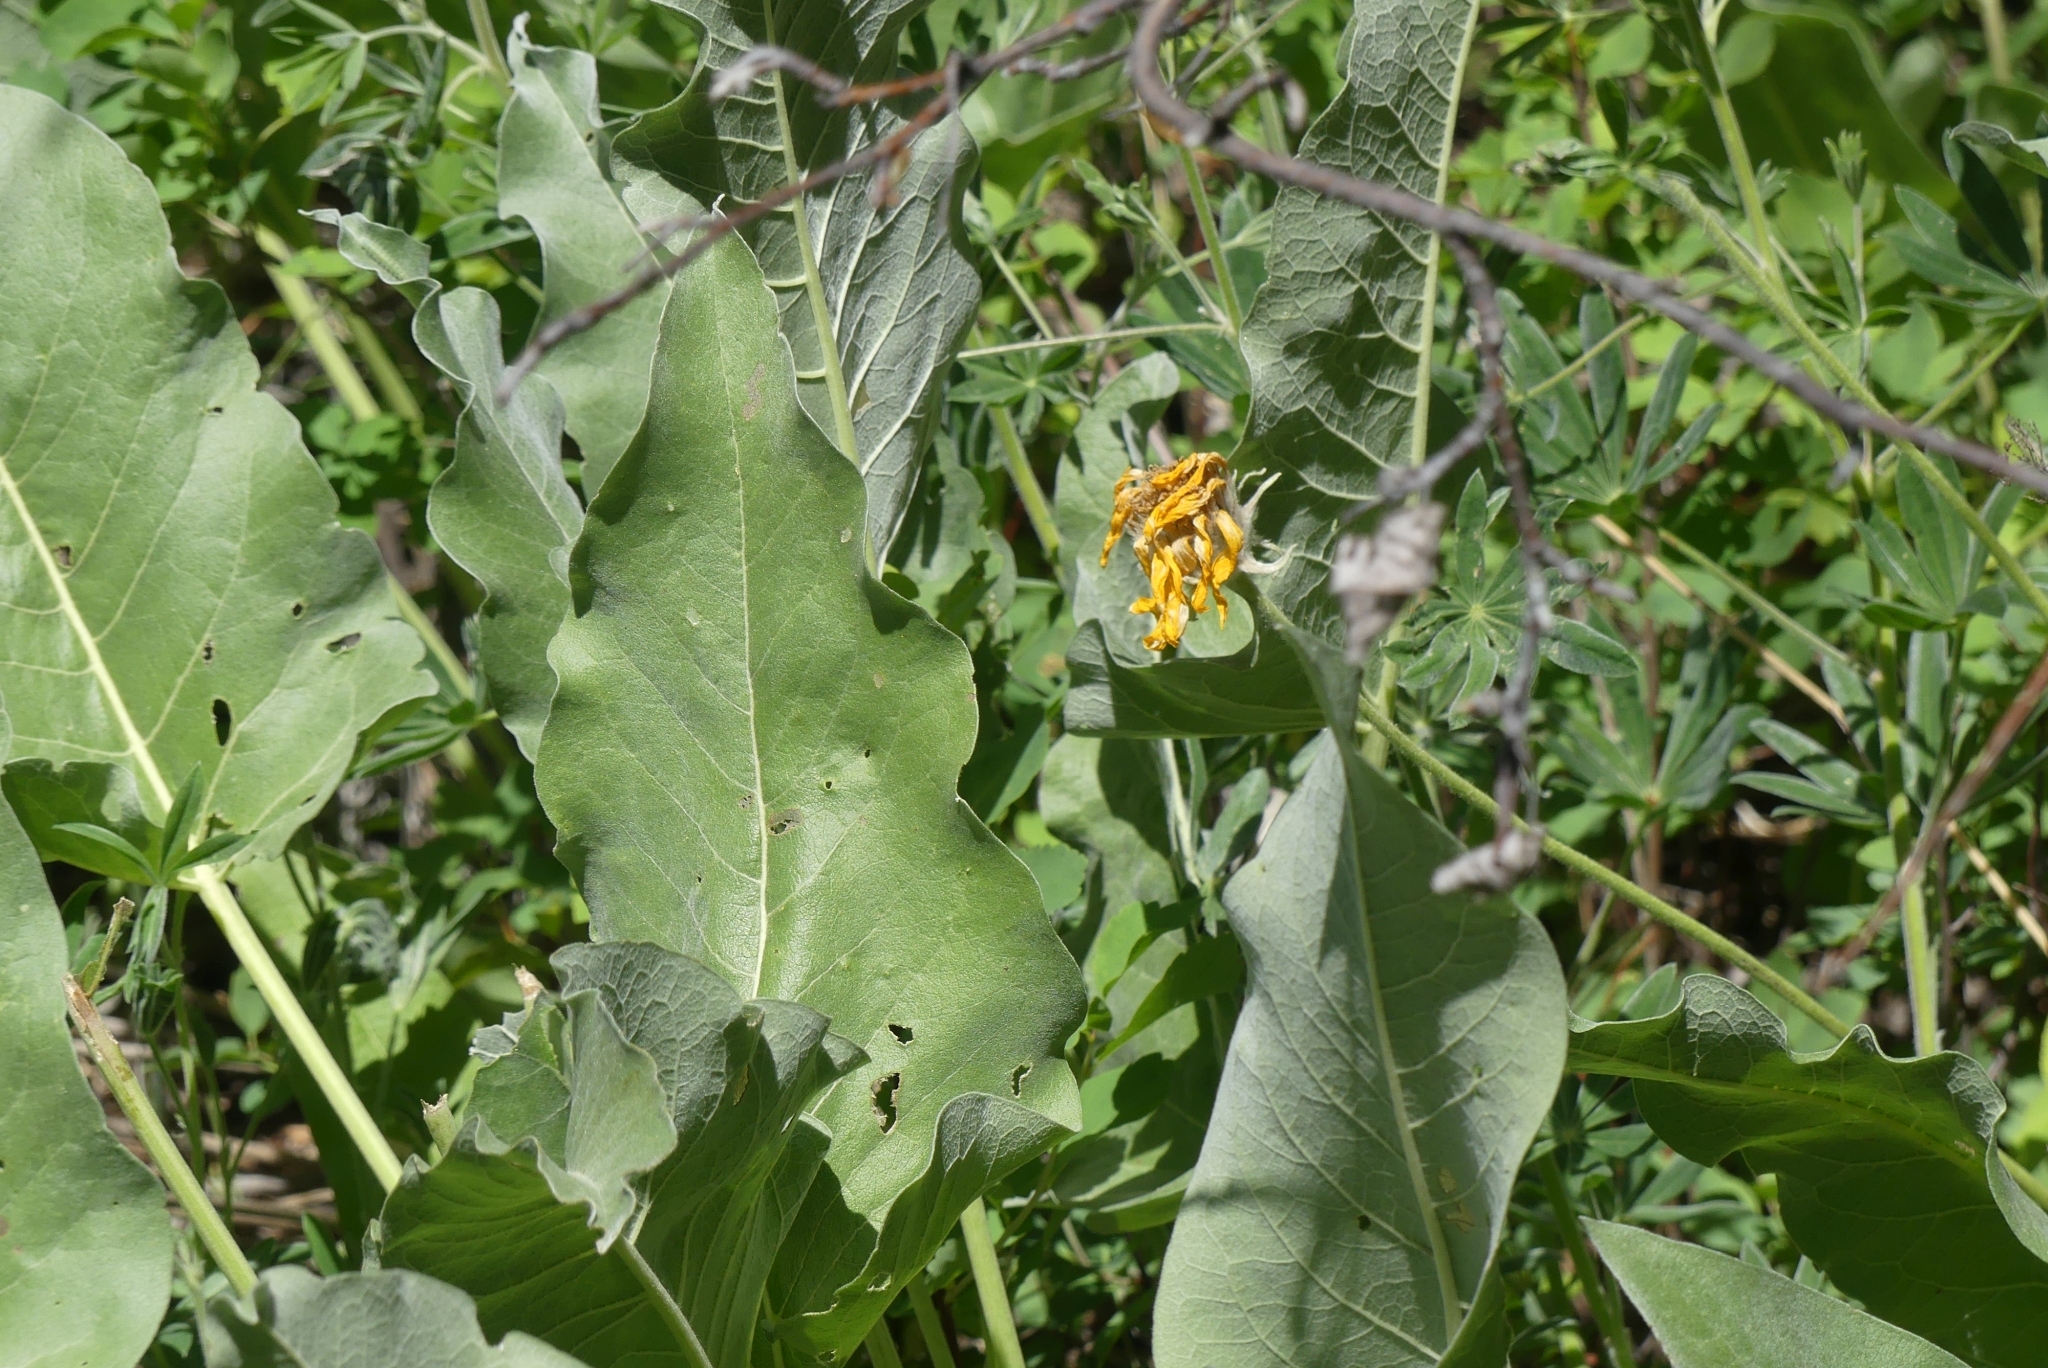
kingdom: Plantae
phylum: Tracheophyta
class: Magnoliopsida
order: Asterales
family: Asteraceae
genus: Wyethia
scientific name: Wyethia sagittata
